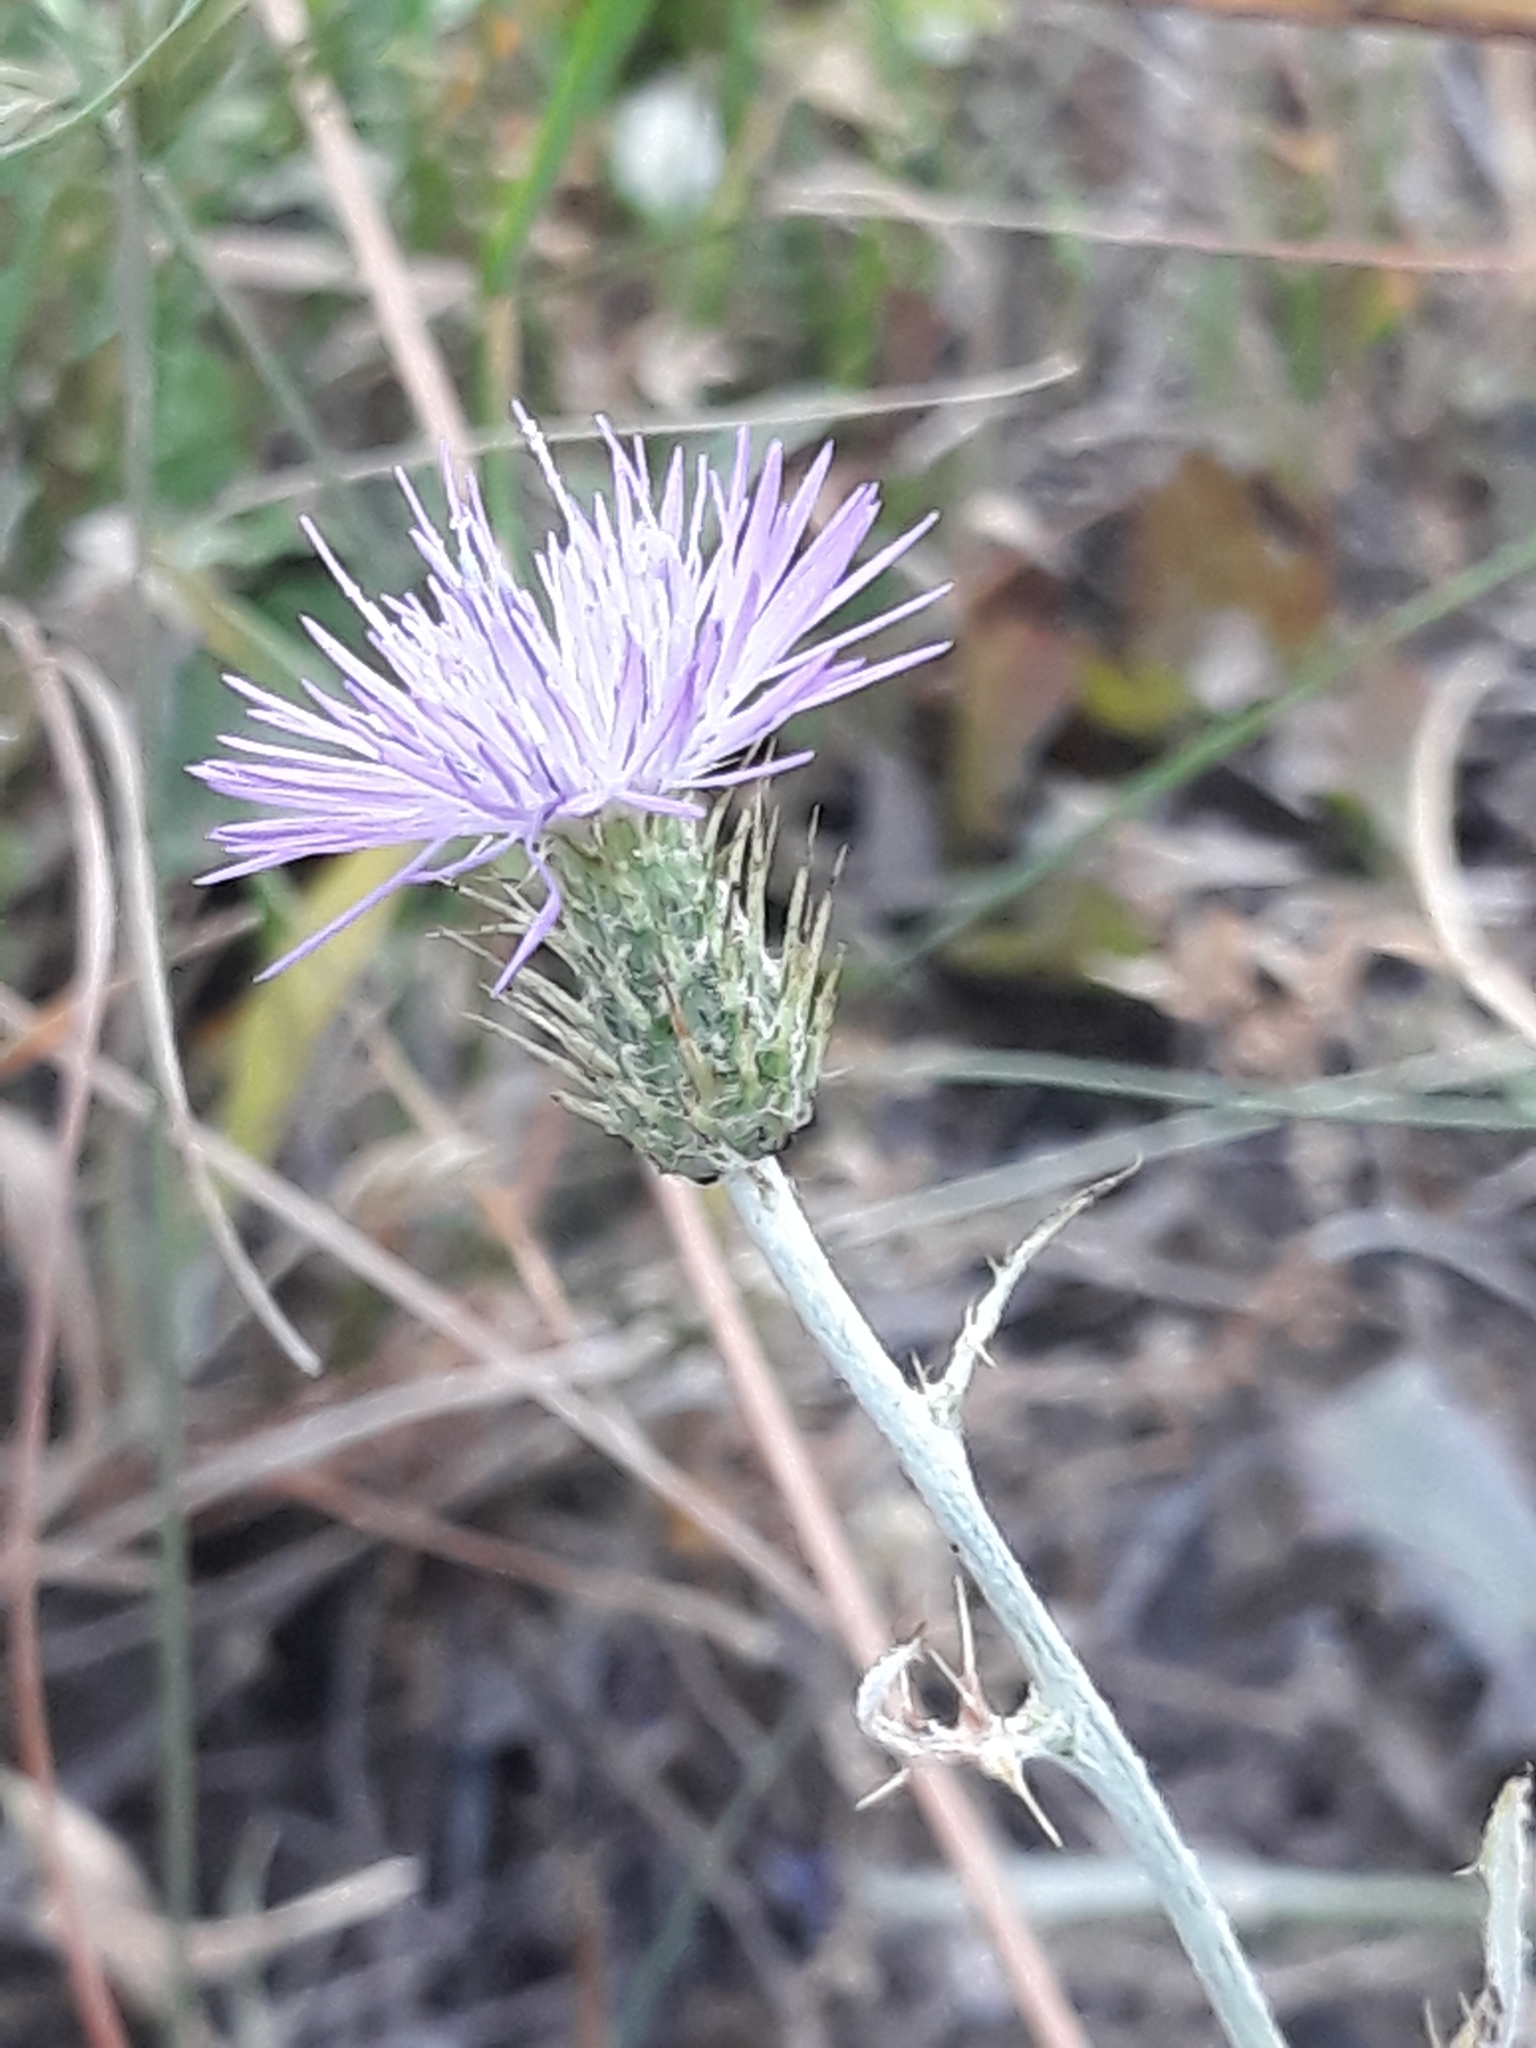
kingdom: Plantae
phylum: Tracheophyta
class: Magnoliopsida
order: Asterales
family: Asteraceae
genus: Galactites
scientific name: Galactites tomentosa
